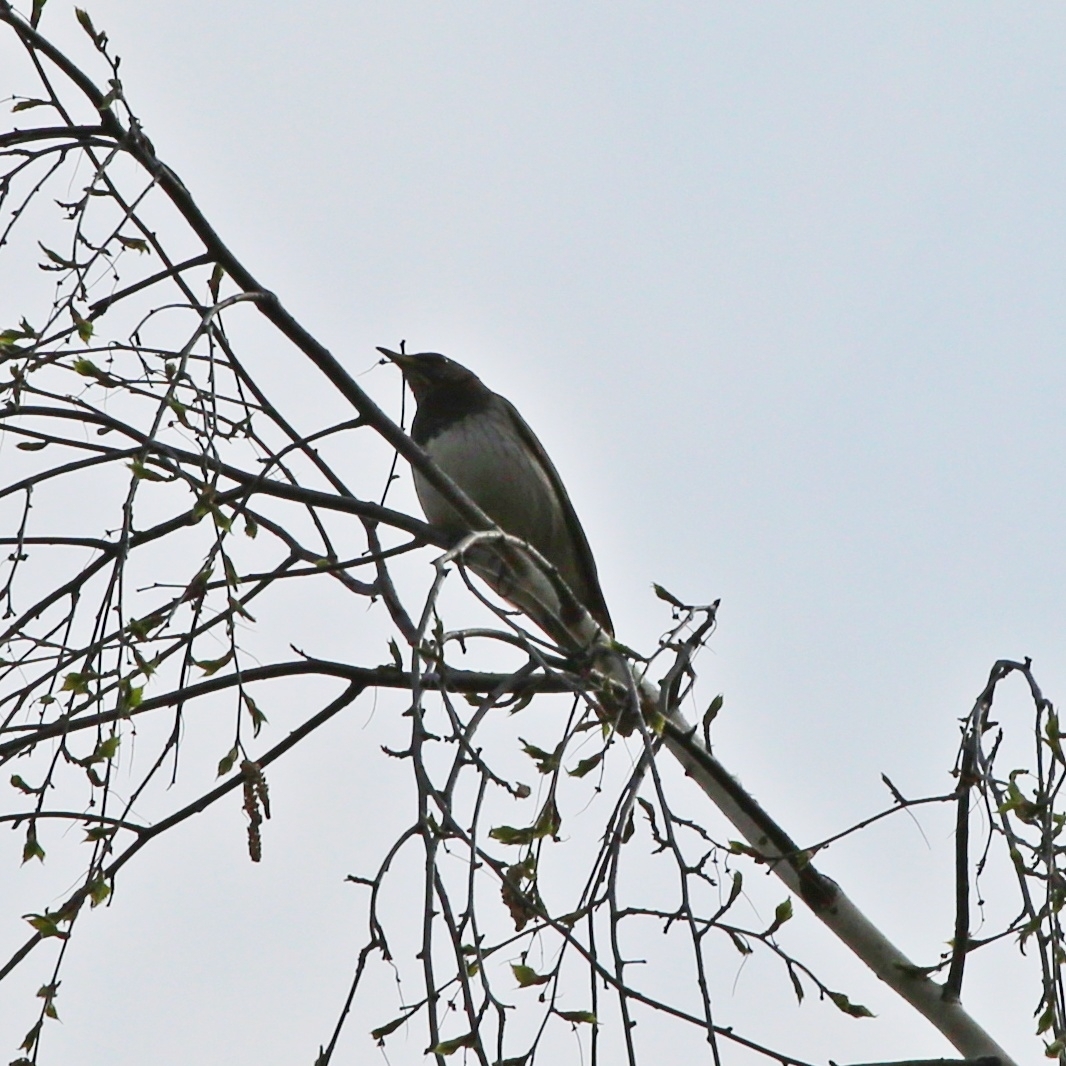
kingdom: Animalia
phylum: Chordata
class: Aves
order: Passeriformes
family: Turdidae
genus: Turdus
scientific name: Turdus atrogularis
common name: Black-throated thrush
